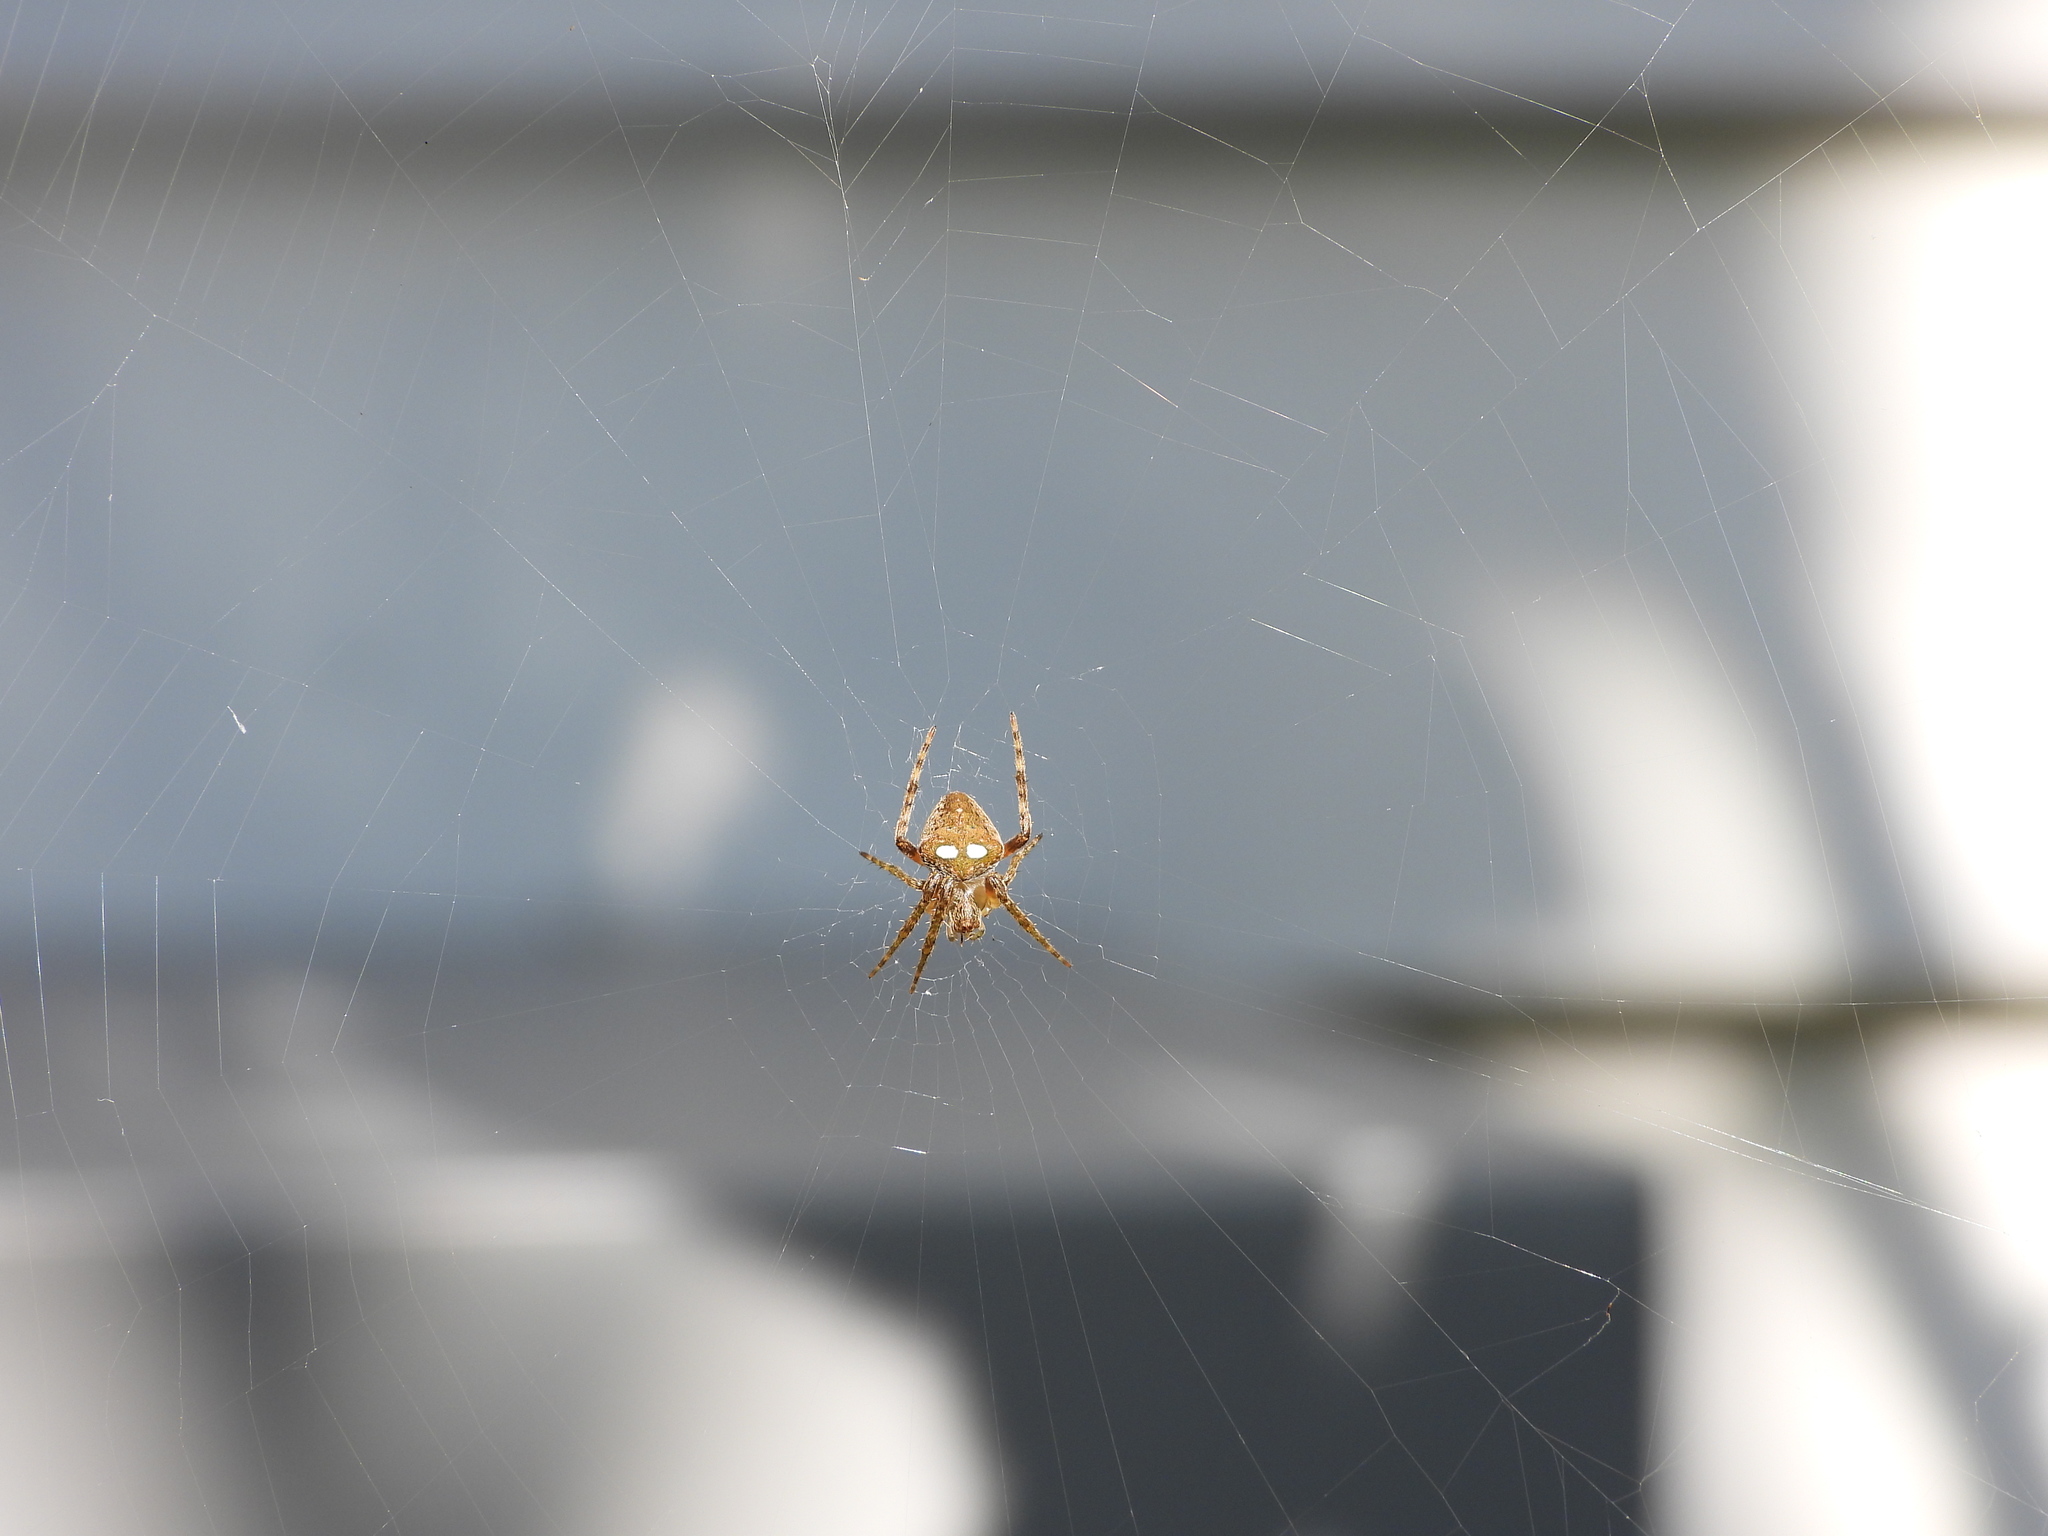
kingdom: Animalia
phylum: Arthropoda
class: Arachnida
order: Araneae
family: Araneidae
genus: Zealaranea
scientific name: Zealaranea crassa
